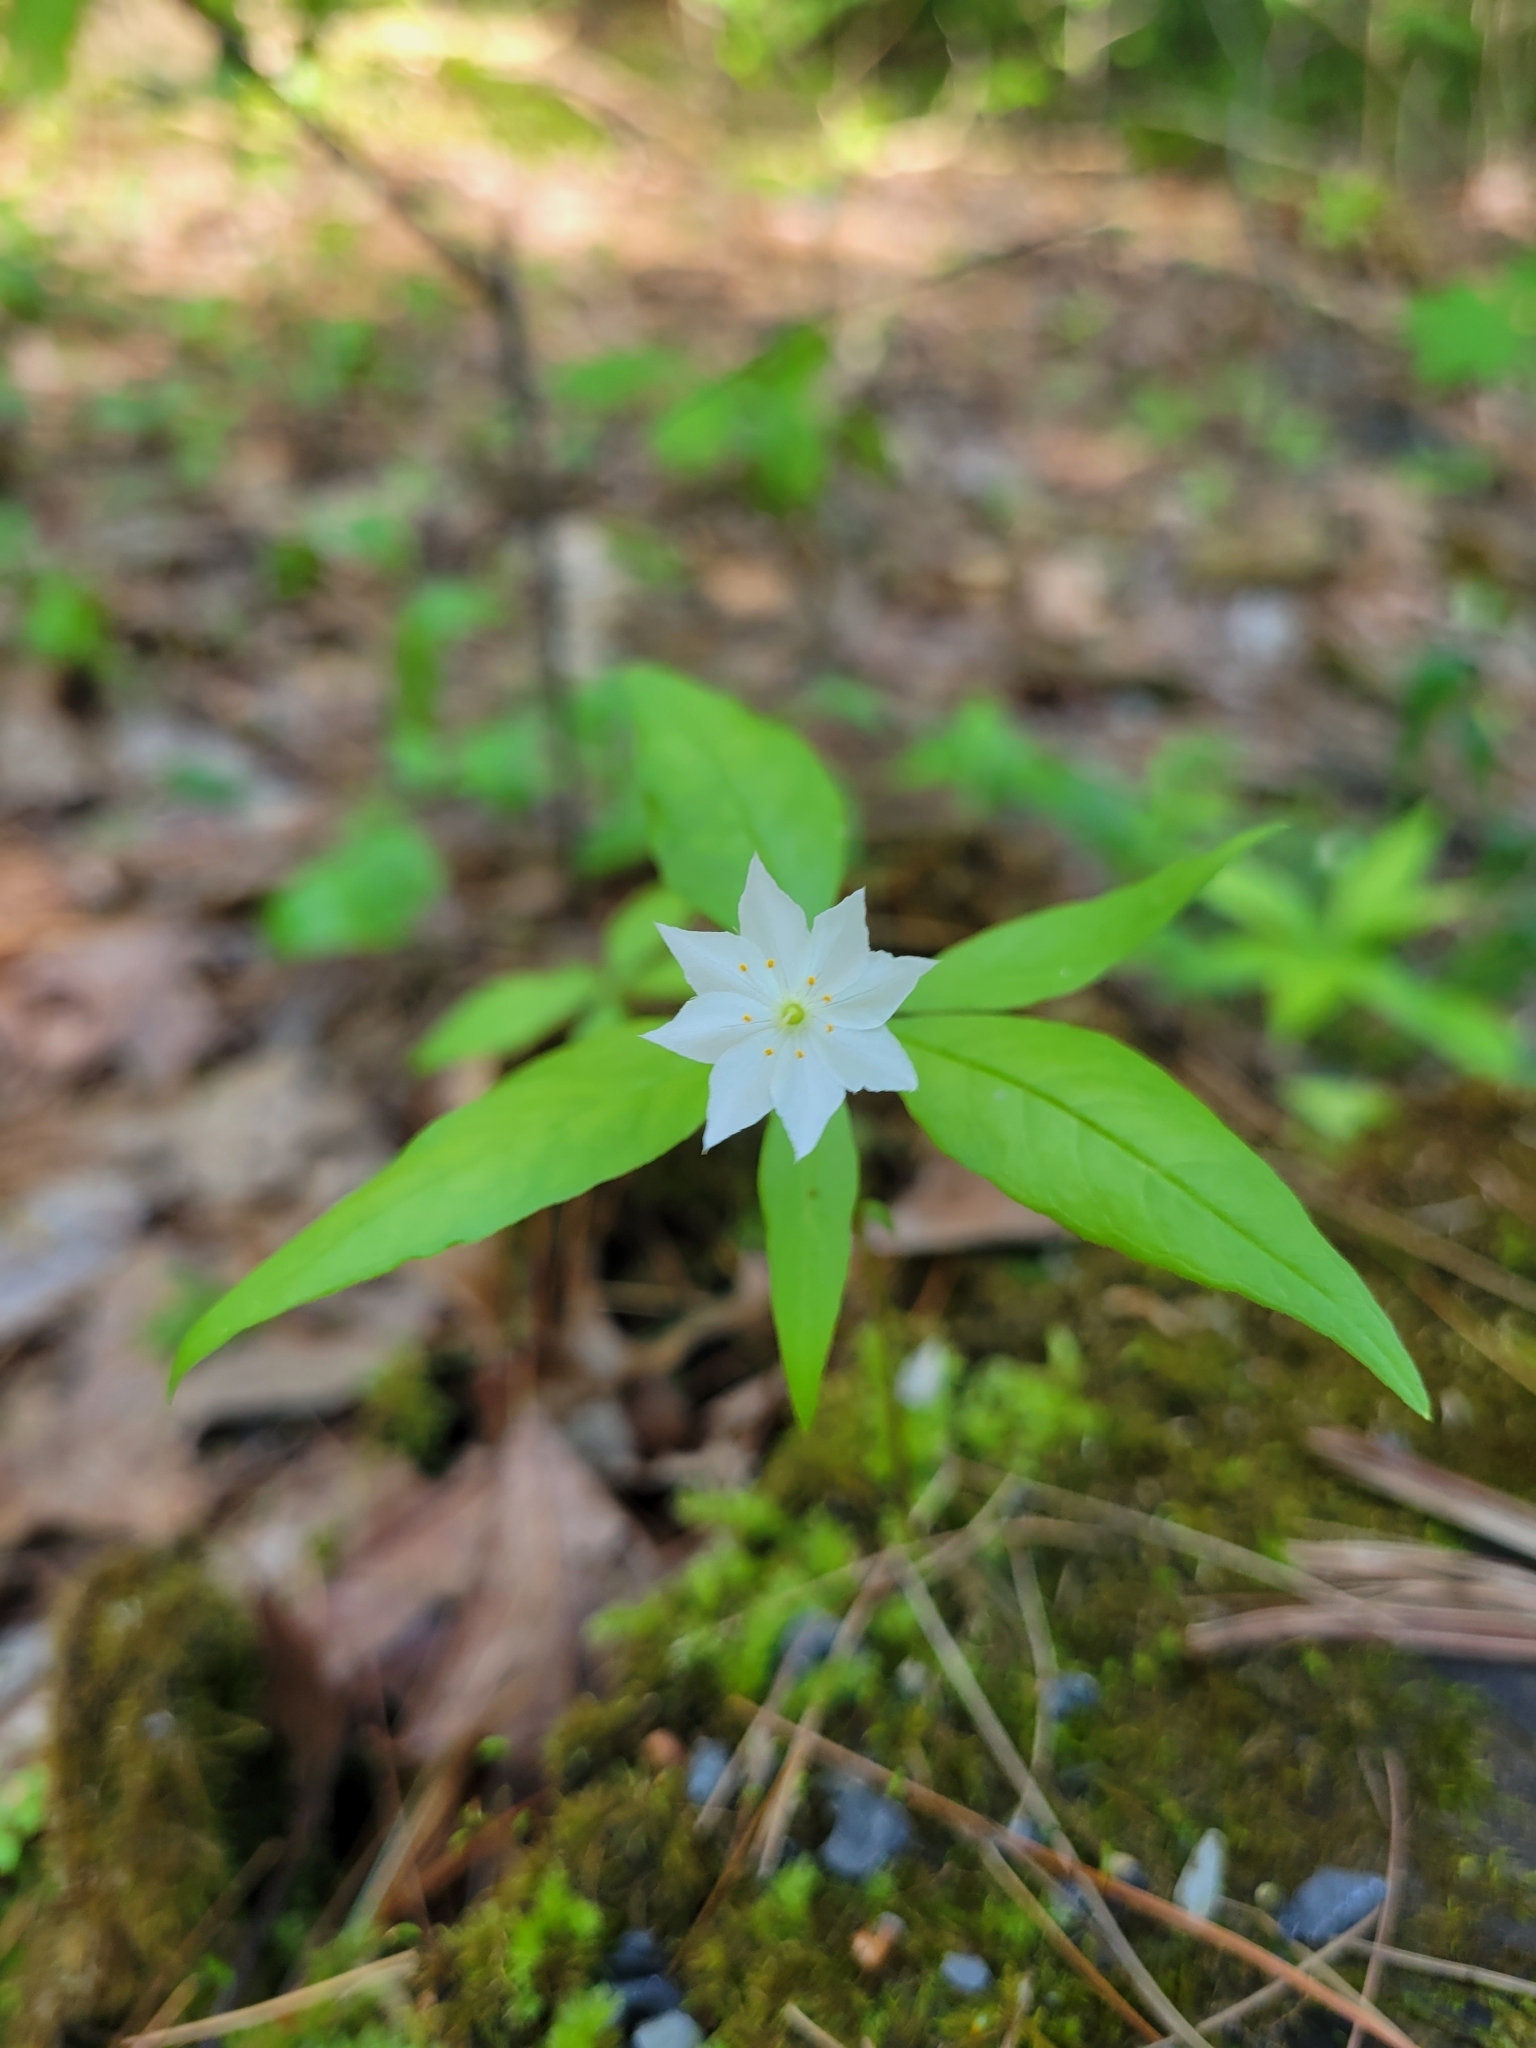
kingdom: Plantae
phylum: Tracheophyta
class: Magnoliopsida
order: Ericales
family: Primulaceae
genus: Lysimachia
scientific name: Lysimachia borealis
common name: American starflower
